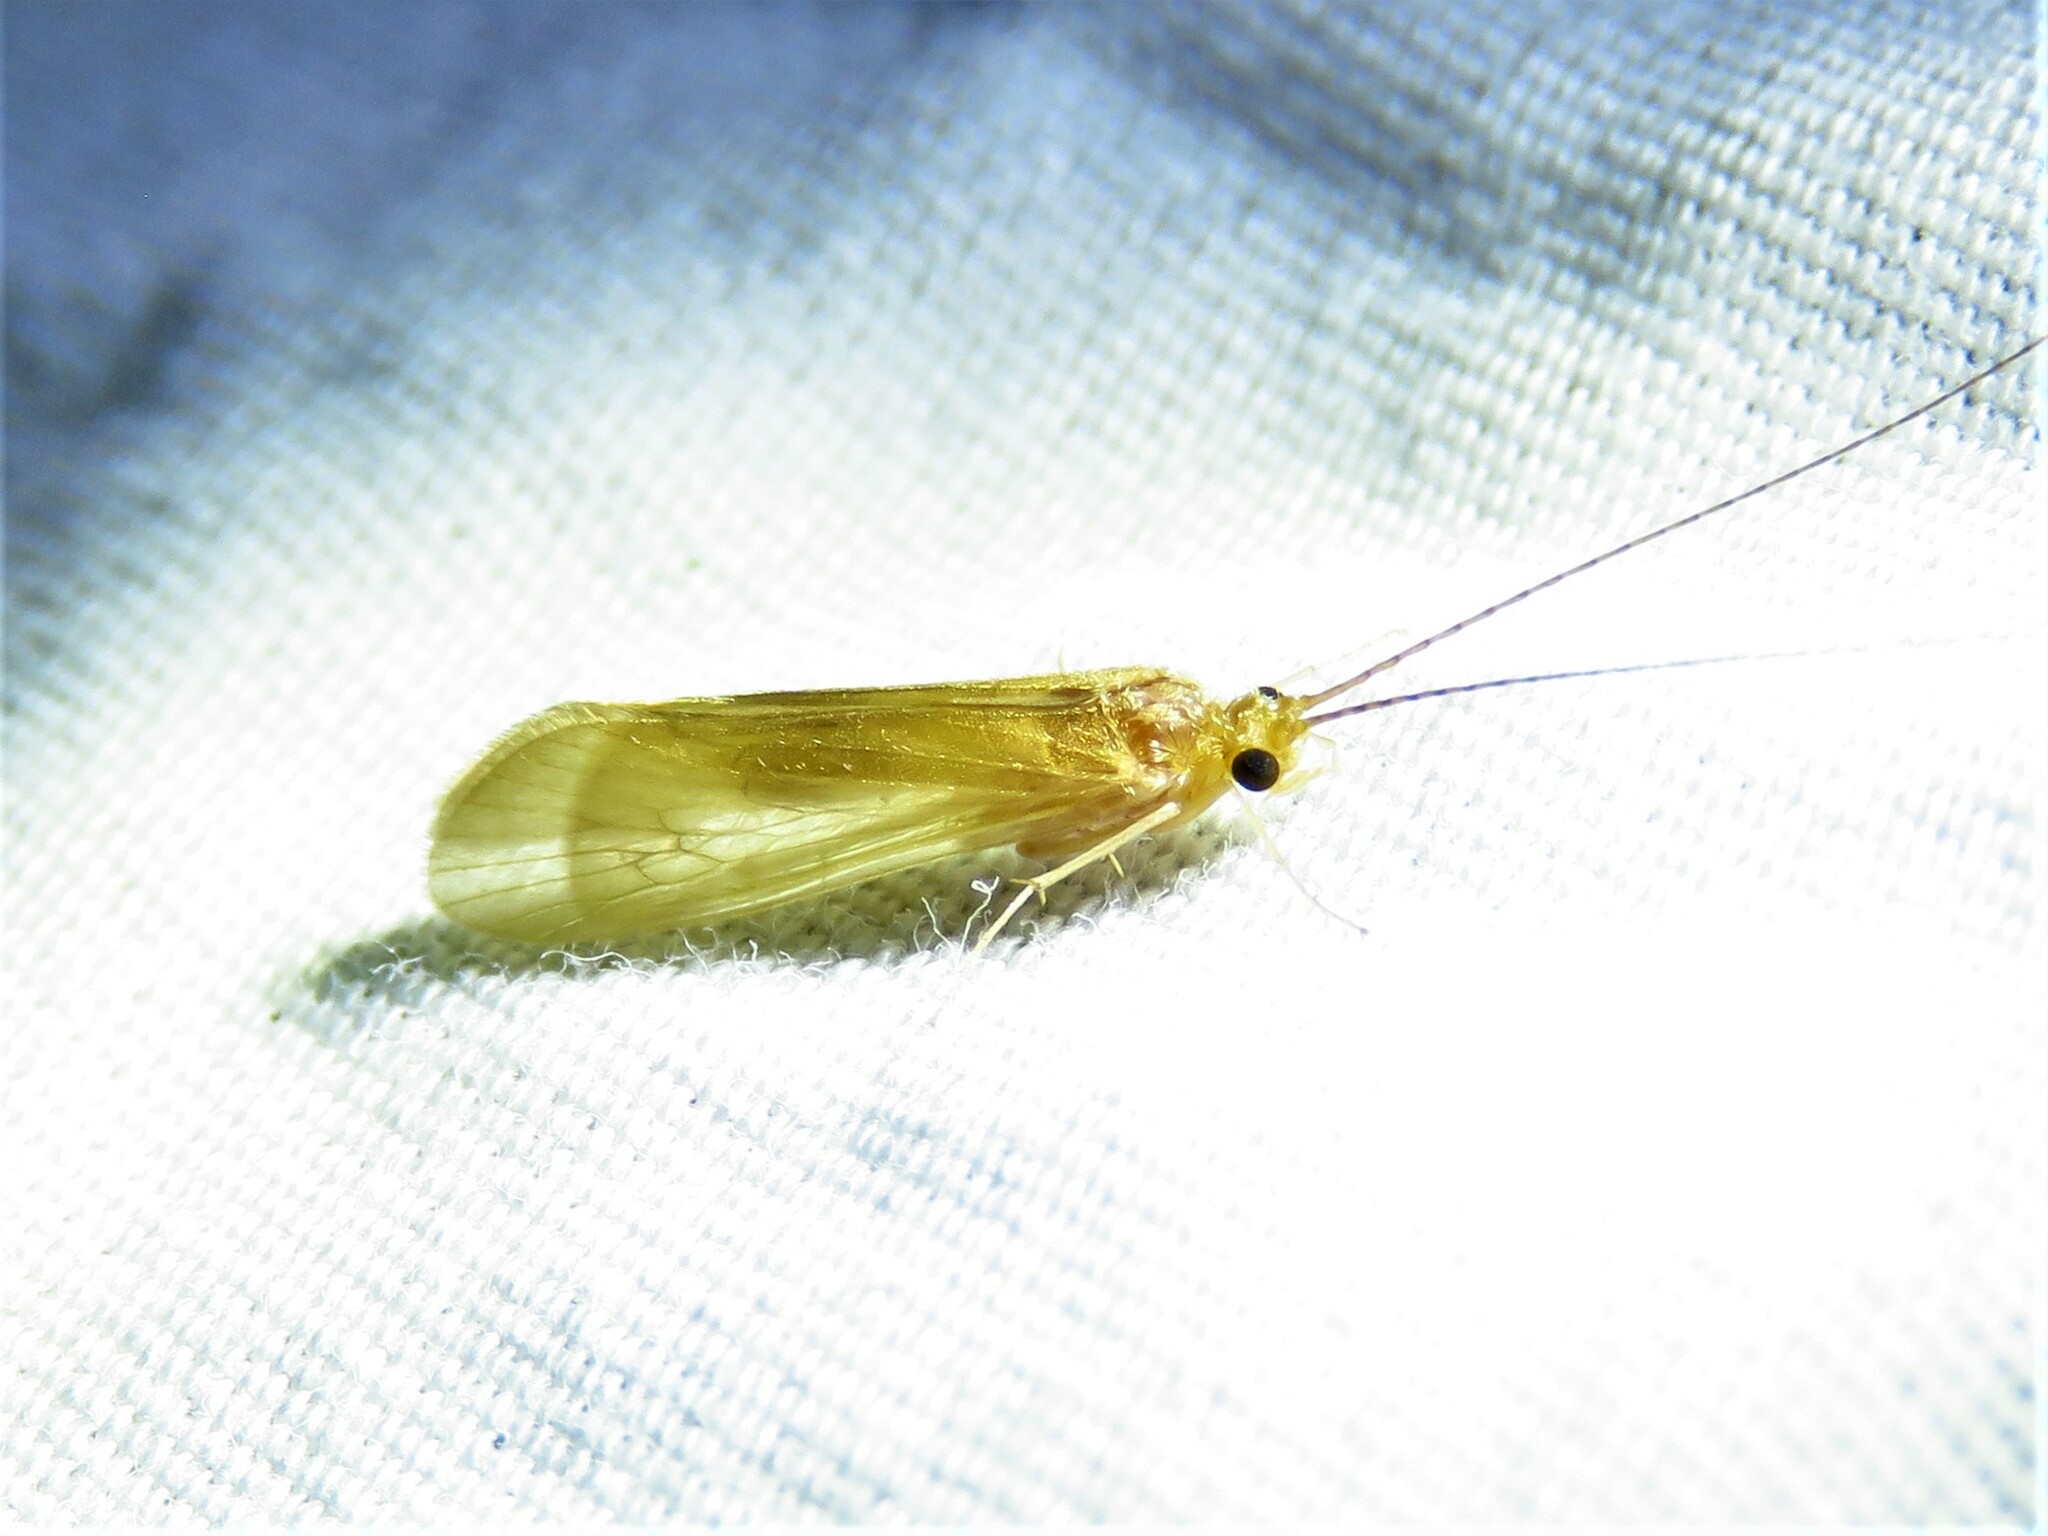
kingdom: Animalia
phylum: Arthropoda
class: Insecta
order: Trichoptera
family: Hydropsychidae
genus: Potamyia
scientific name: Potamyia flava
